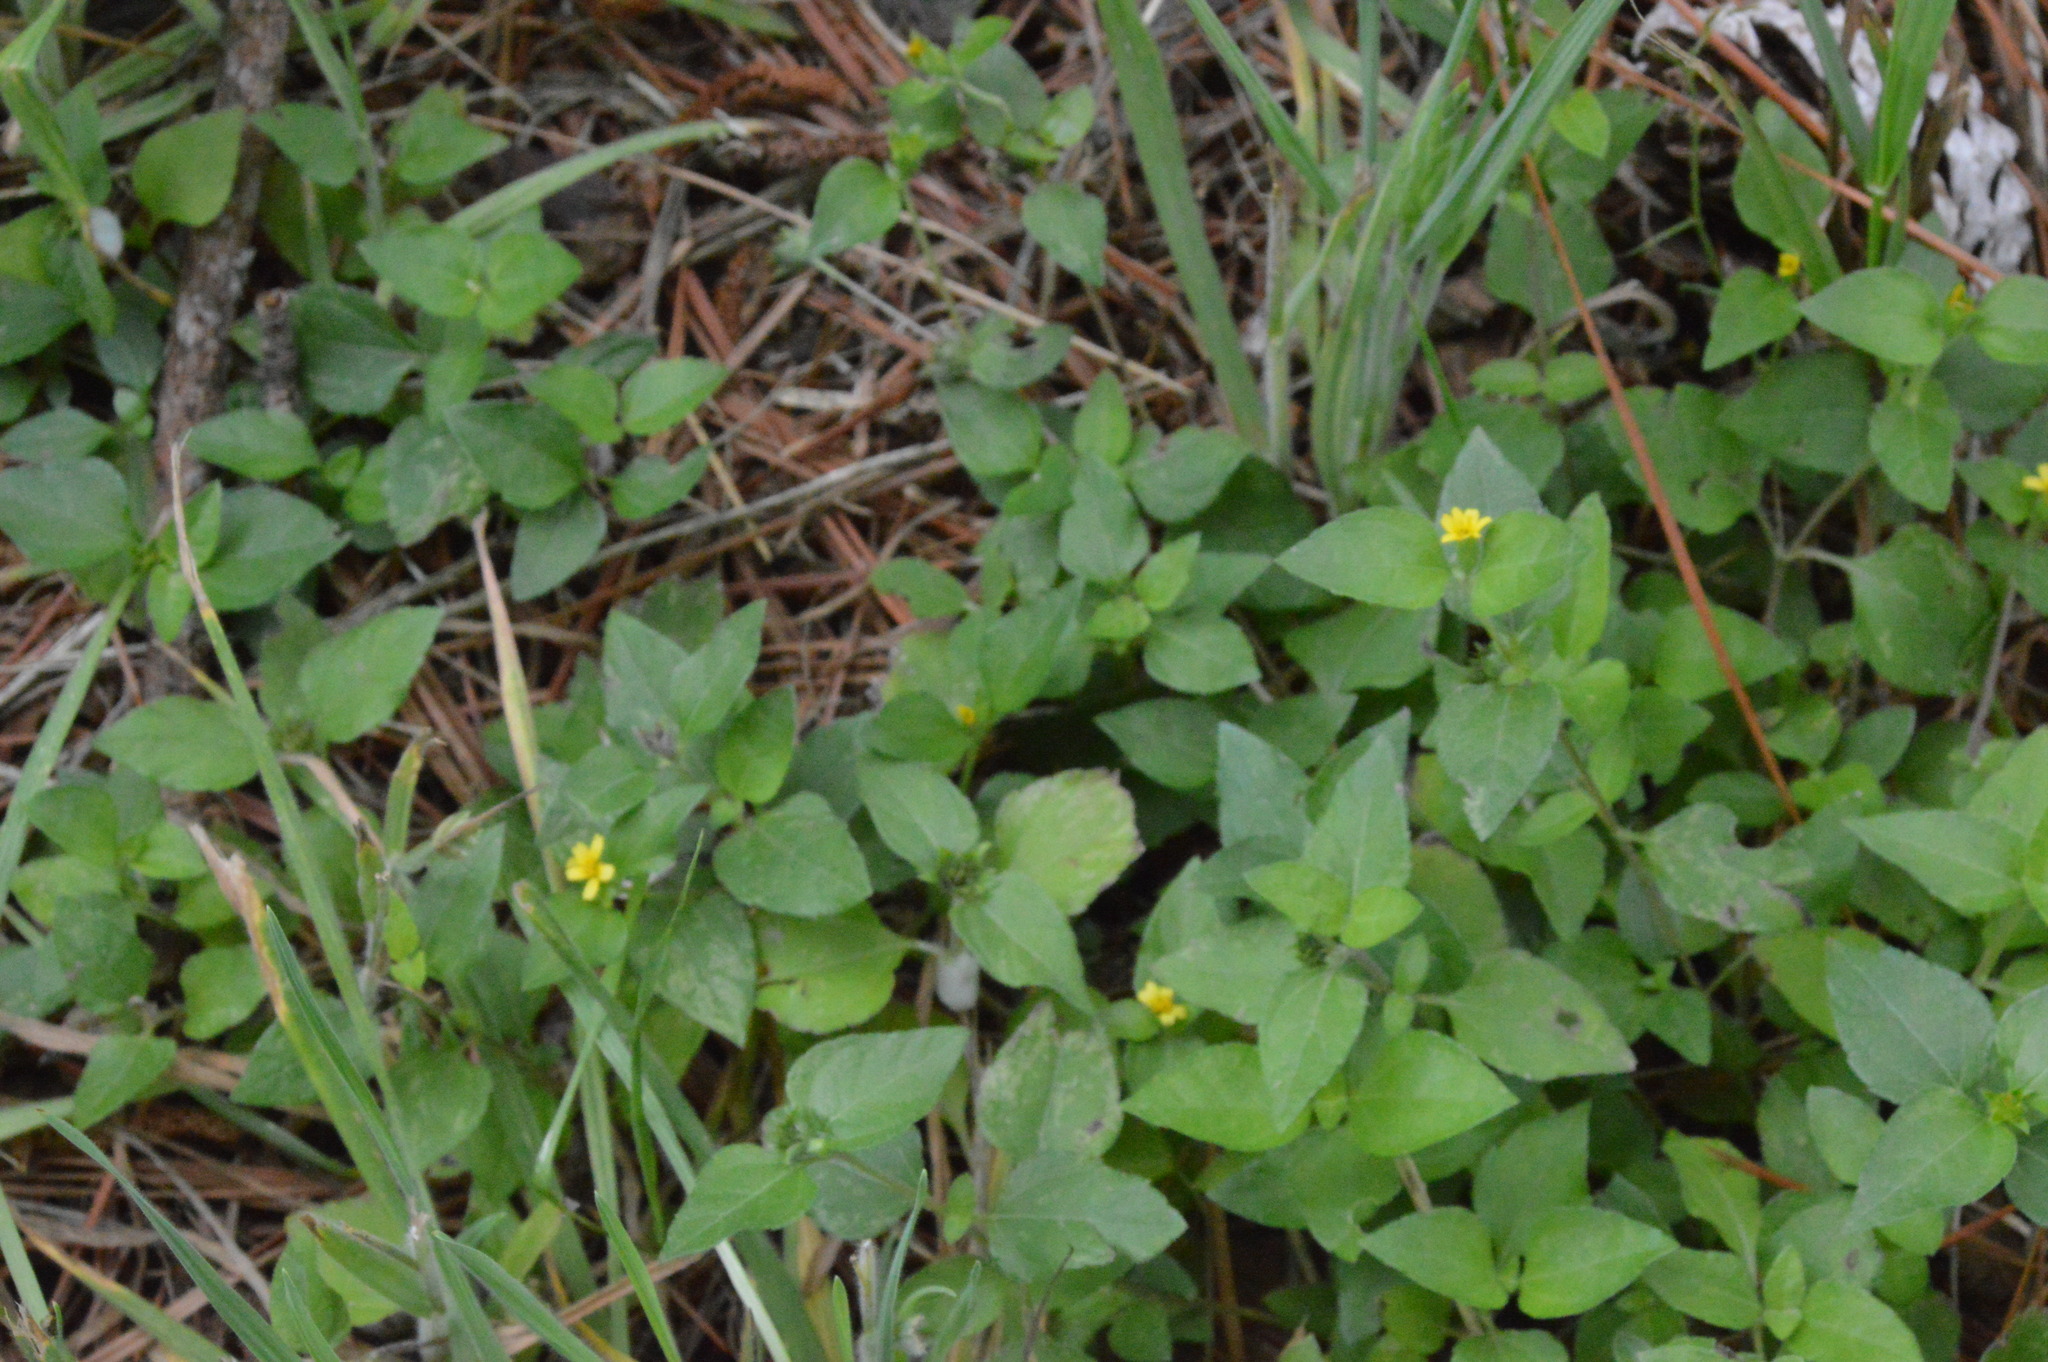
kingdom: Plantae
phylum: Tracheophyta
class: Magnoliopsida
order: Asterales
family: Asteraceae
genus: Calyptocarpus
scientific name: Calyptocarpus vialis
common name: Straggler daisy
